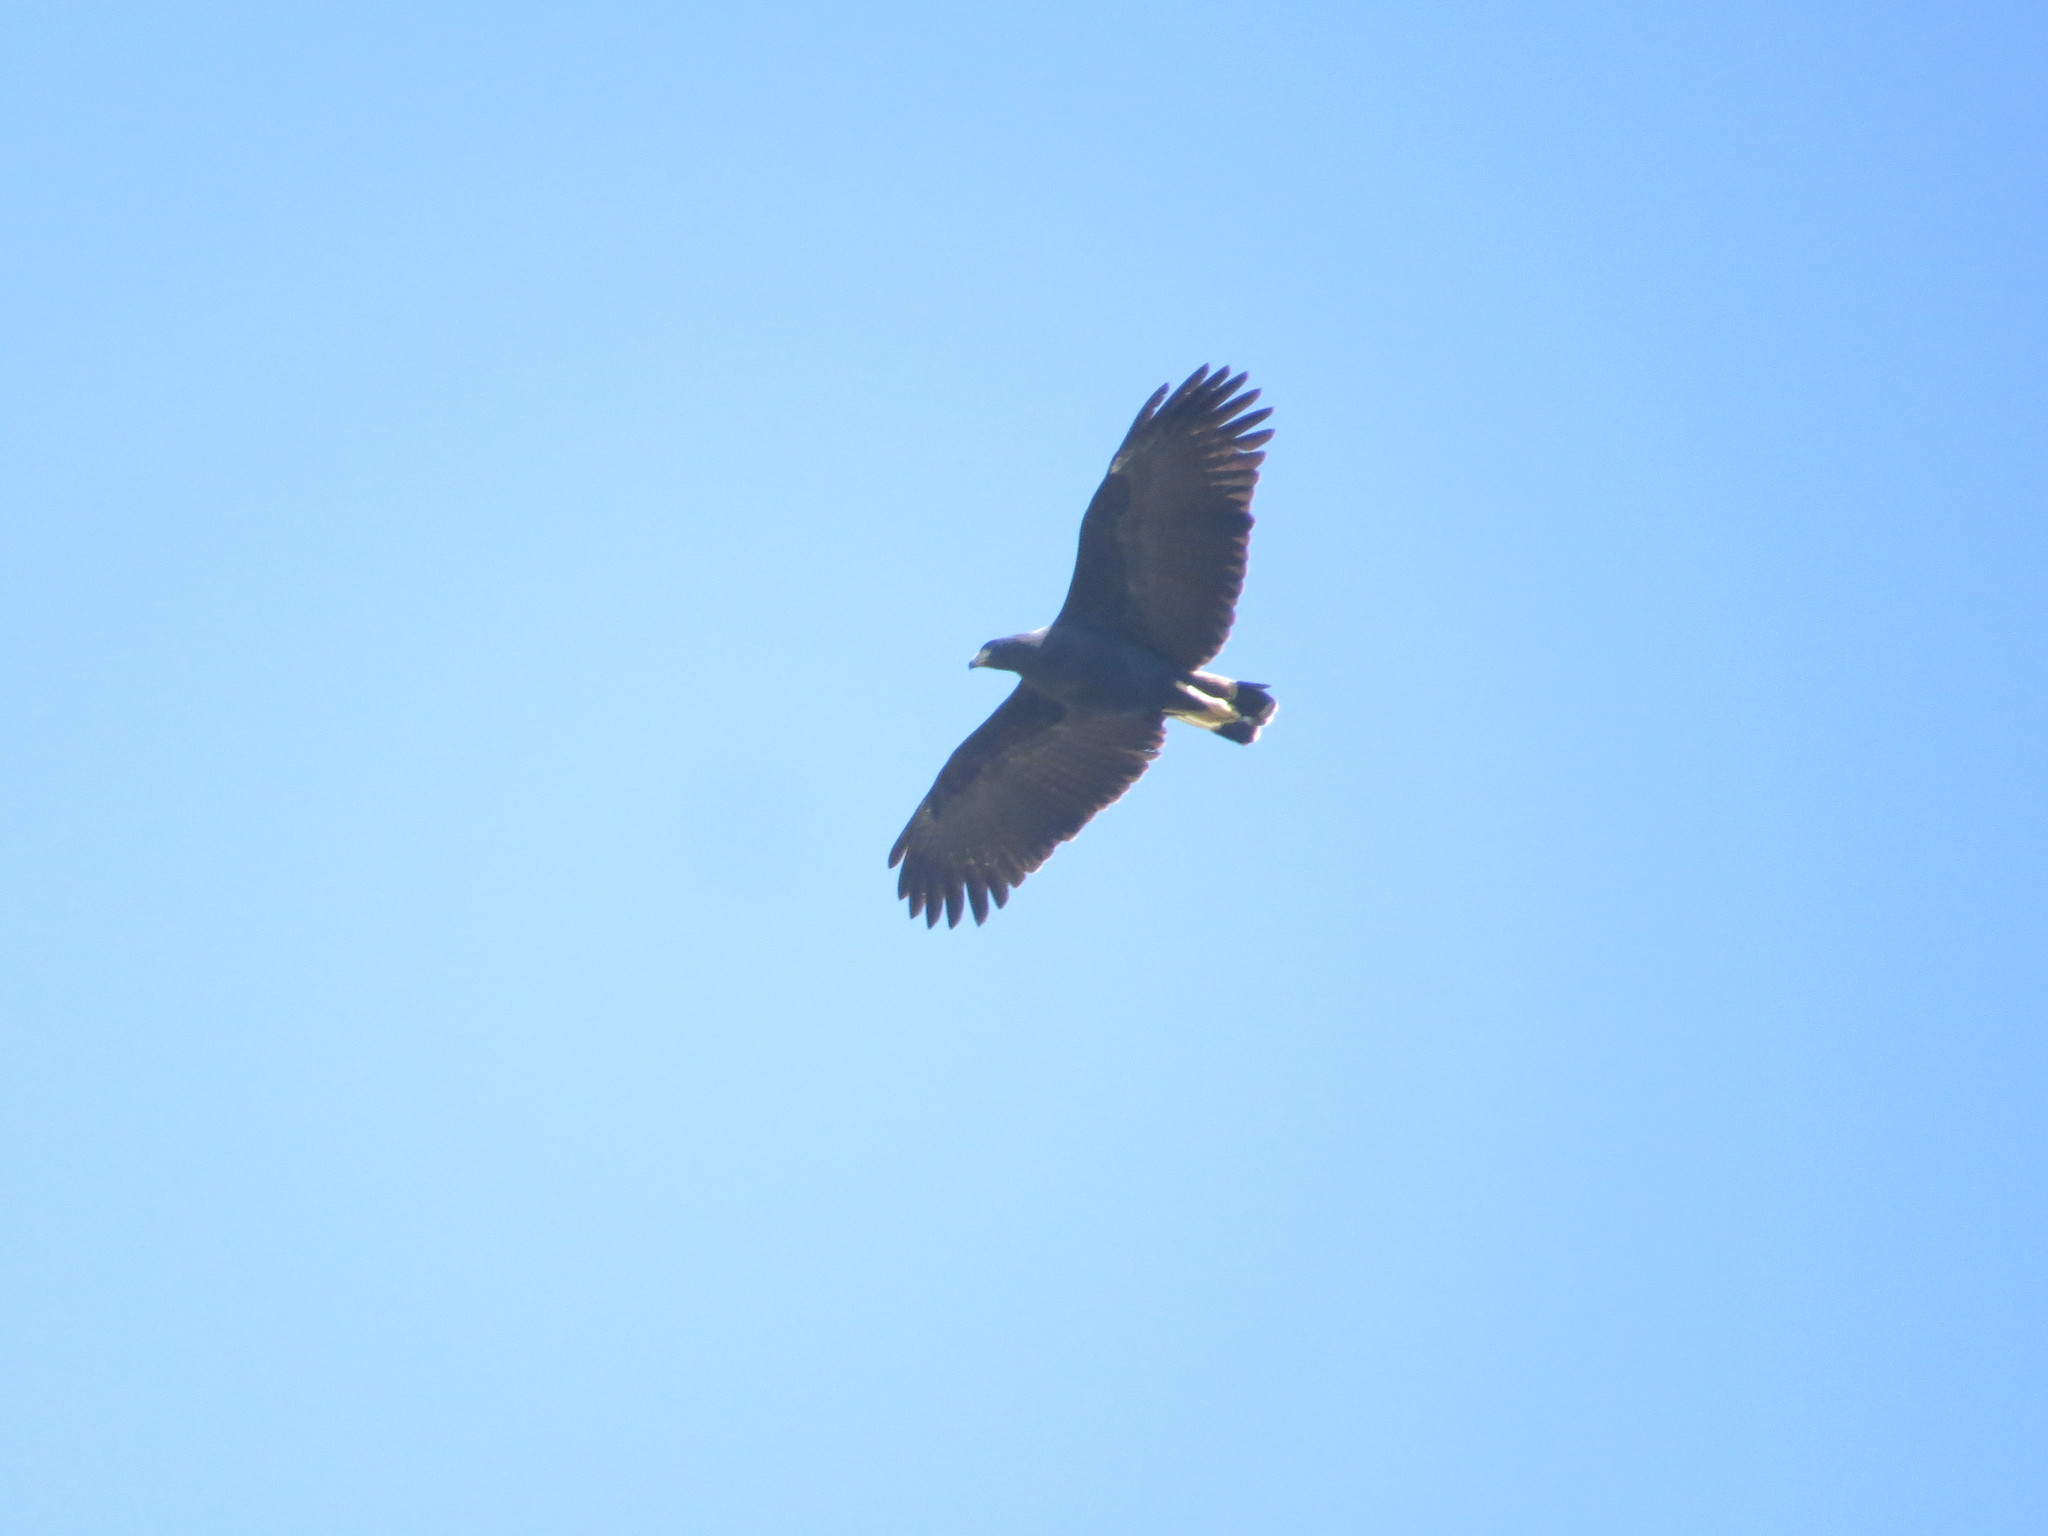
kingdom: Animalia
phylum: Chordata
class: Aves
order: Accipitriformes
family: Accipitridae
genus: Buteogallus
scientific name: Buteogallus urubitinga
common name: Great black hawk
